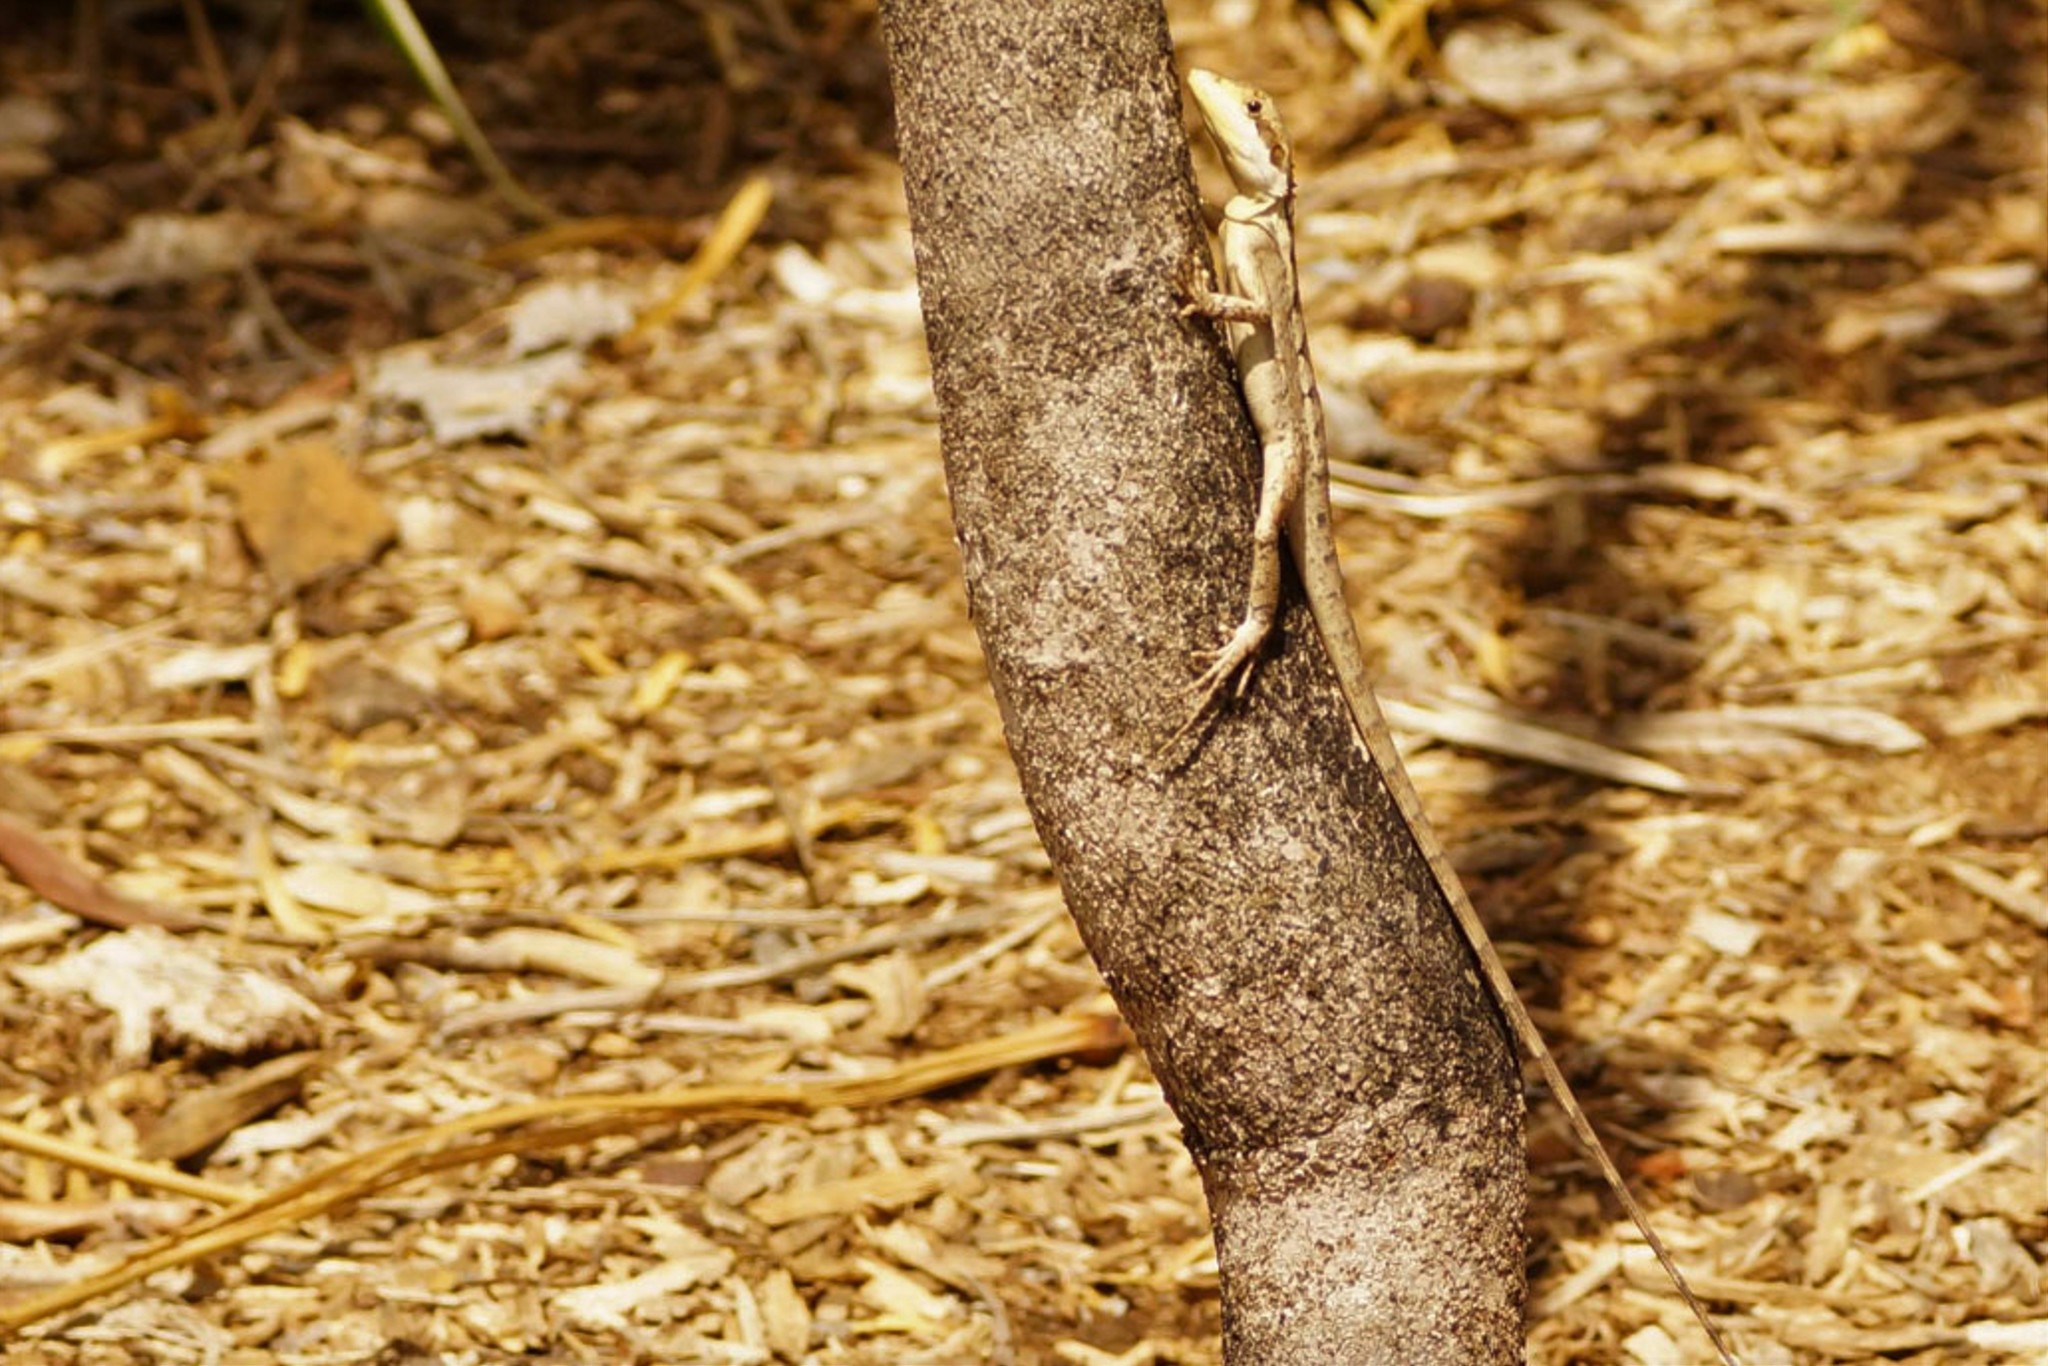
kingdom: Animalia
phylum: Chordata
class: Squamata
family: Agamidae
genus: Tropicagama
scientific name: Tropicagama temporalis
